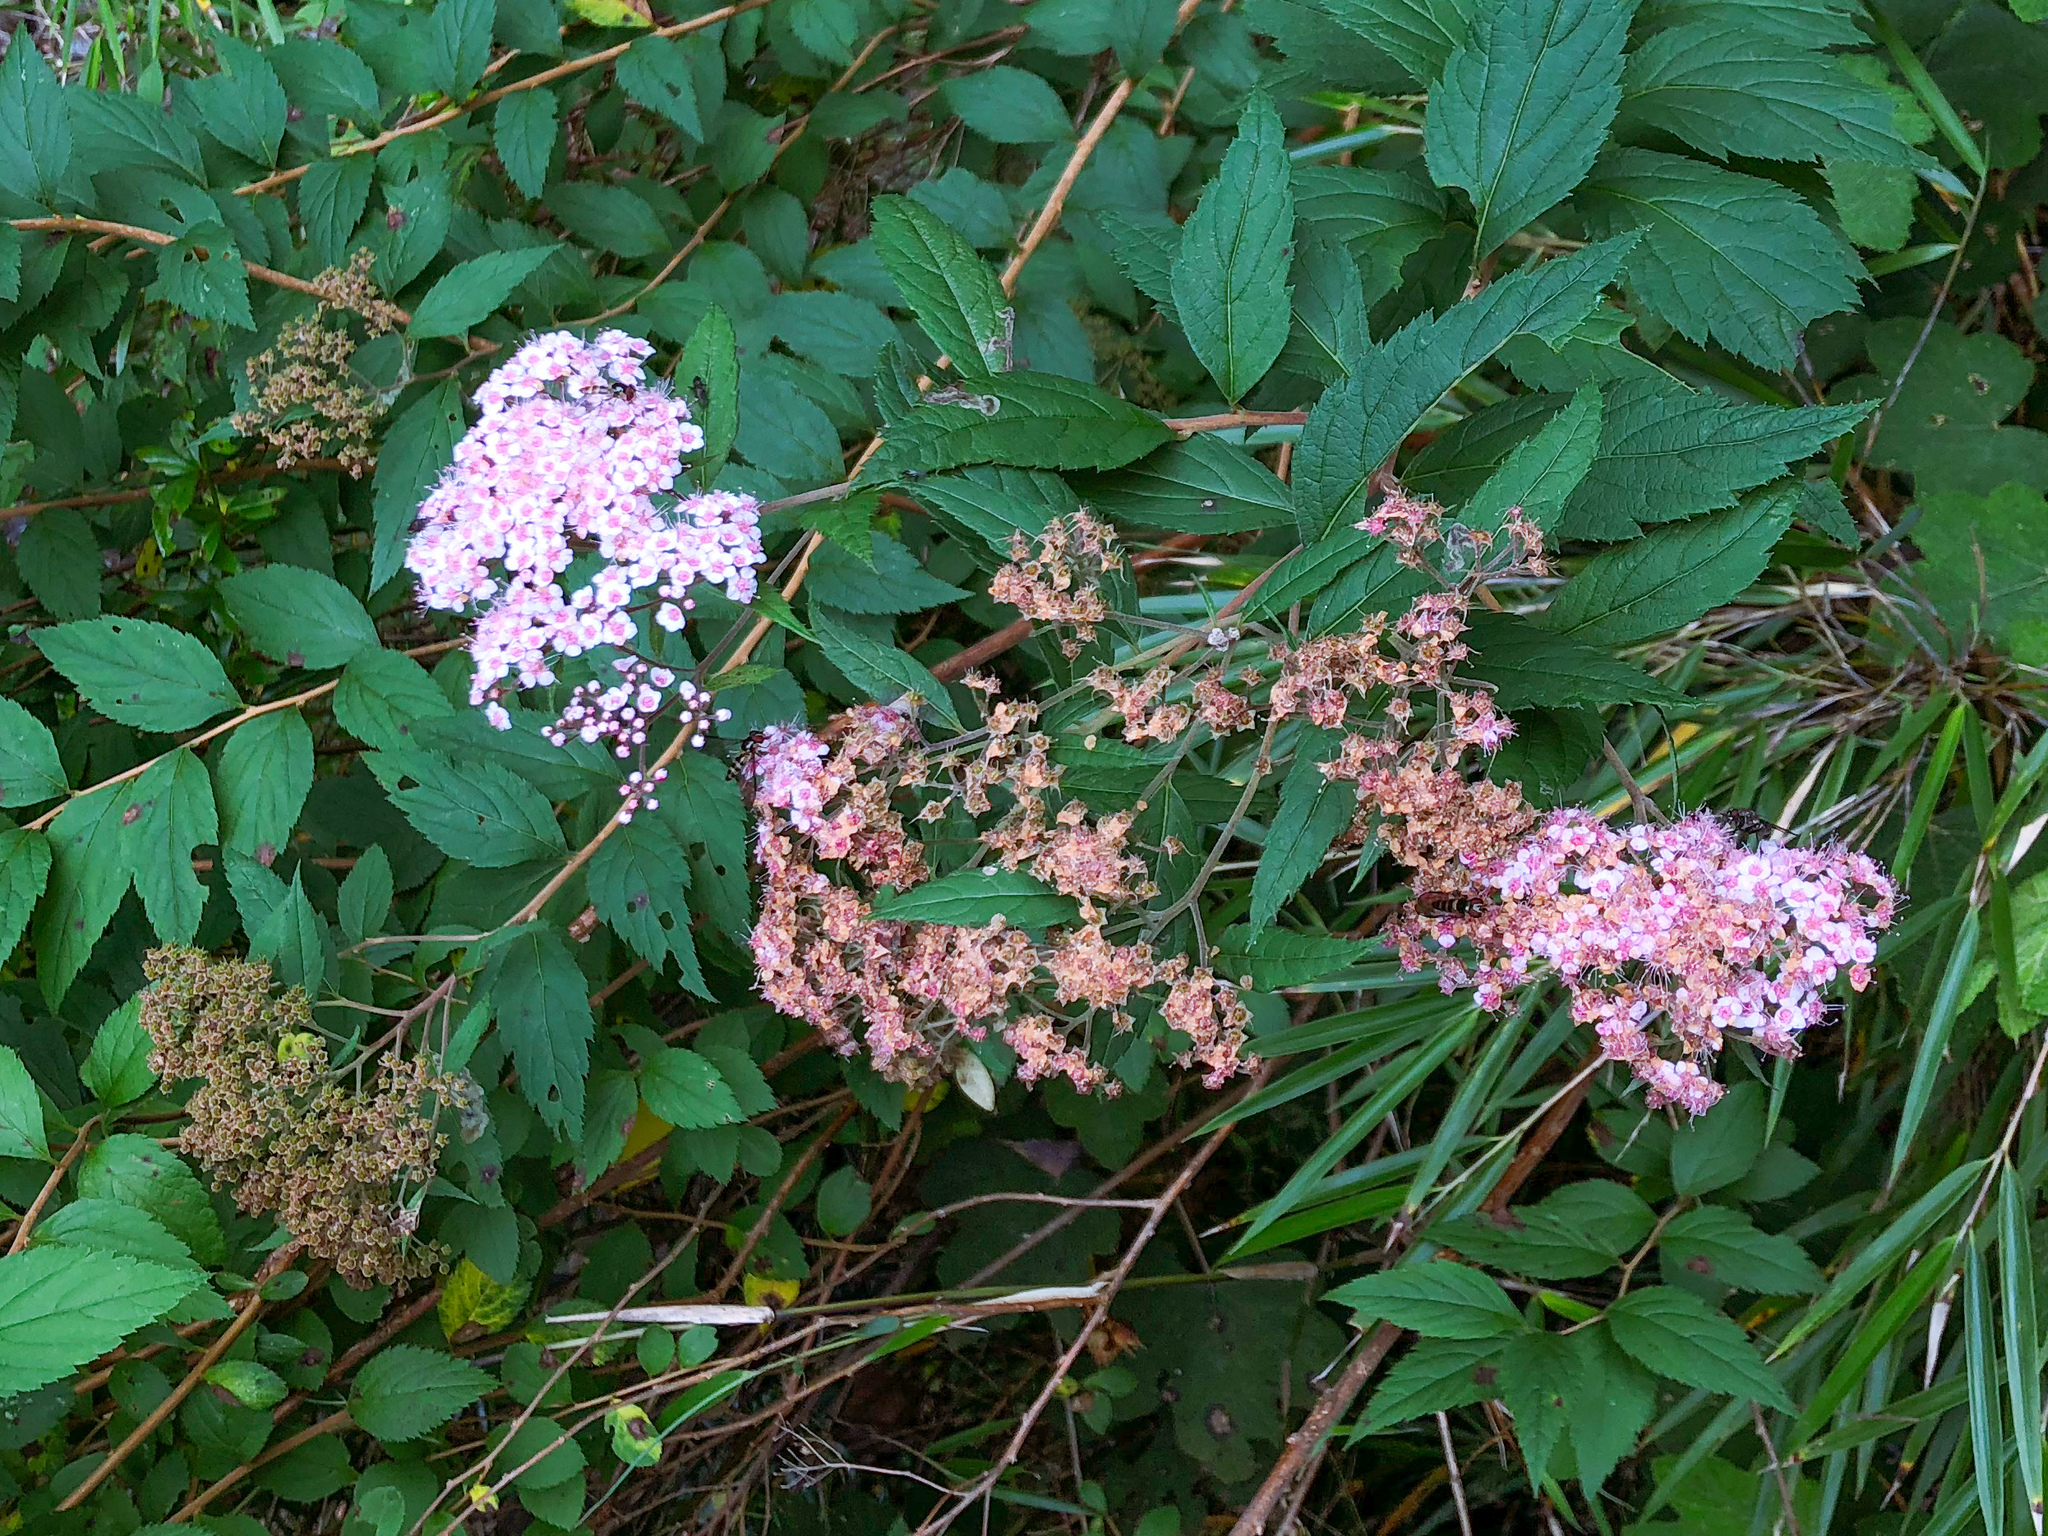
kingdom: Plantae
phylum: Tracheophyta
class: Magnoliopsida
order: Rosales
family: Rosaceae
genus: Spiraea
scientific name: Spiraea japonica
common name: Japanese spiraea
